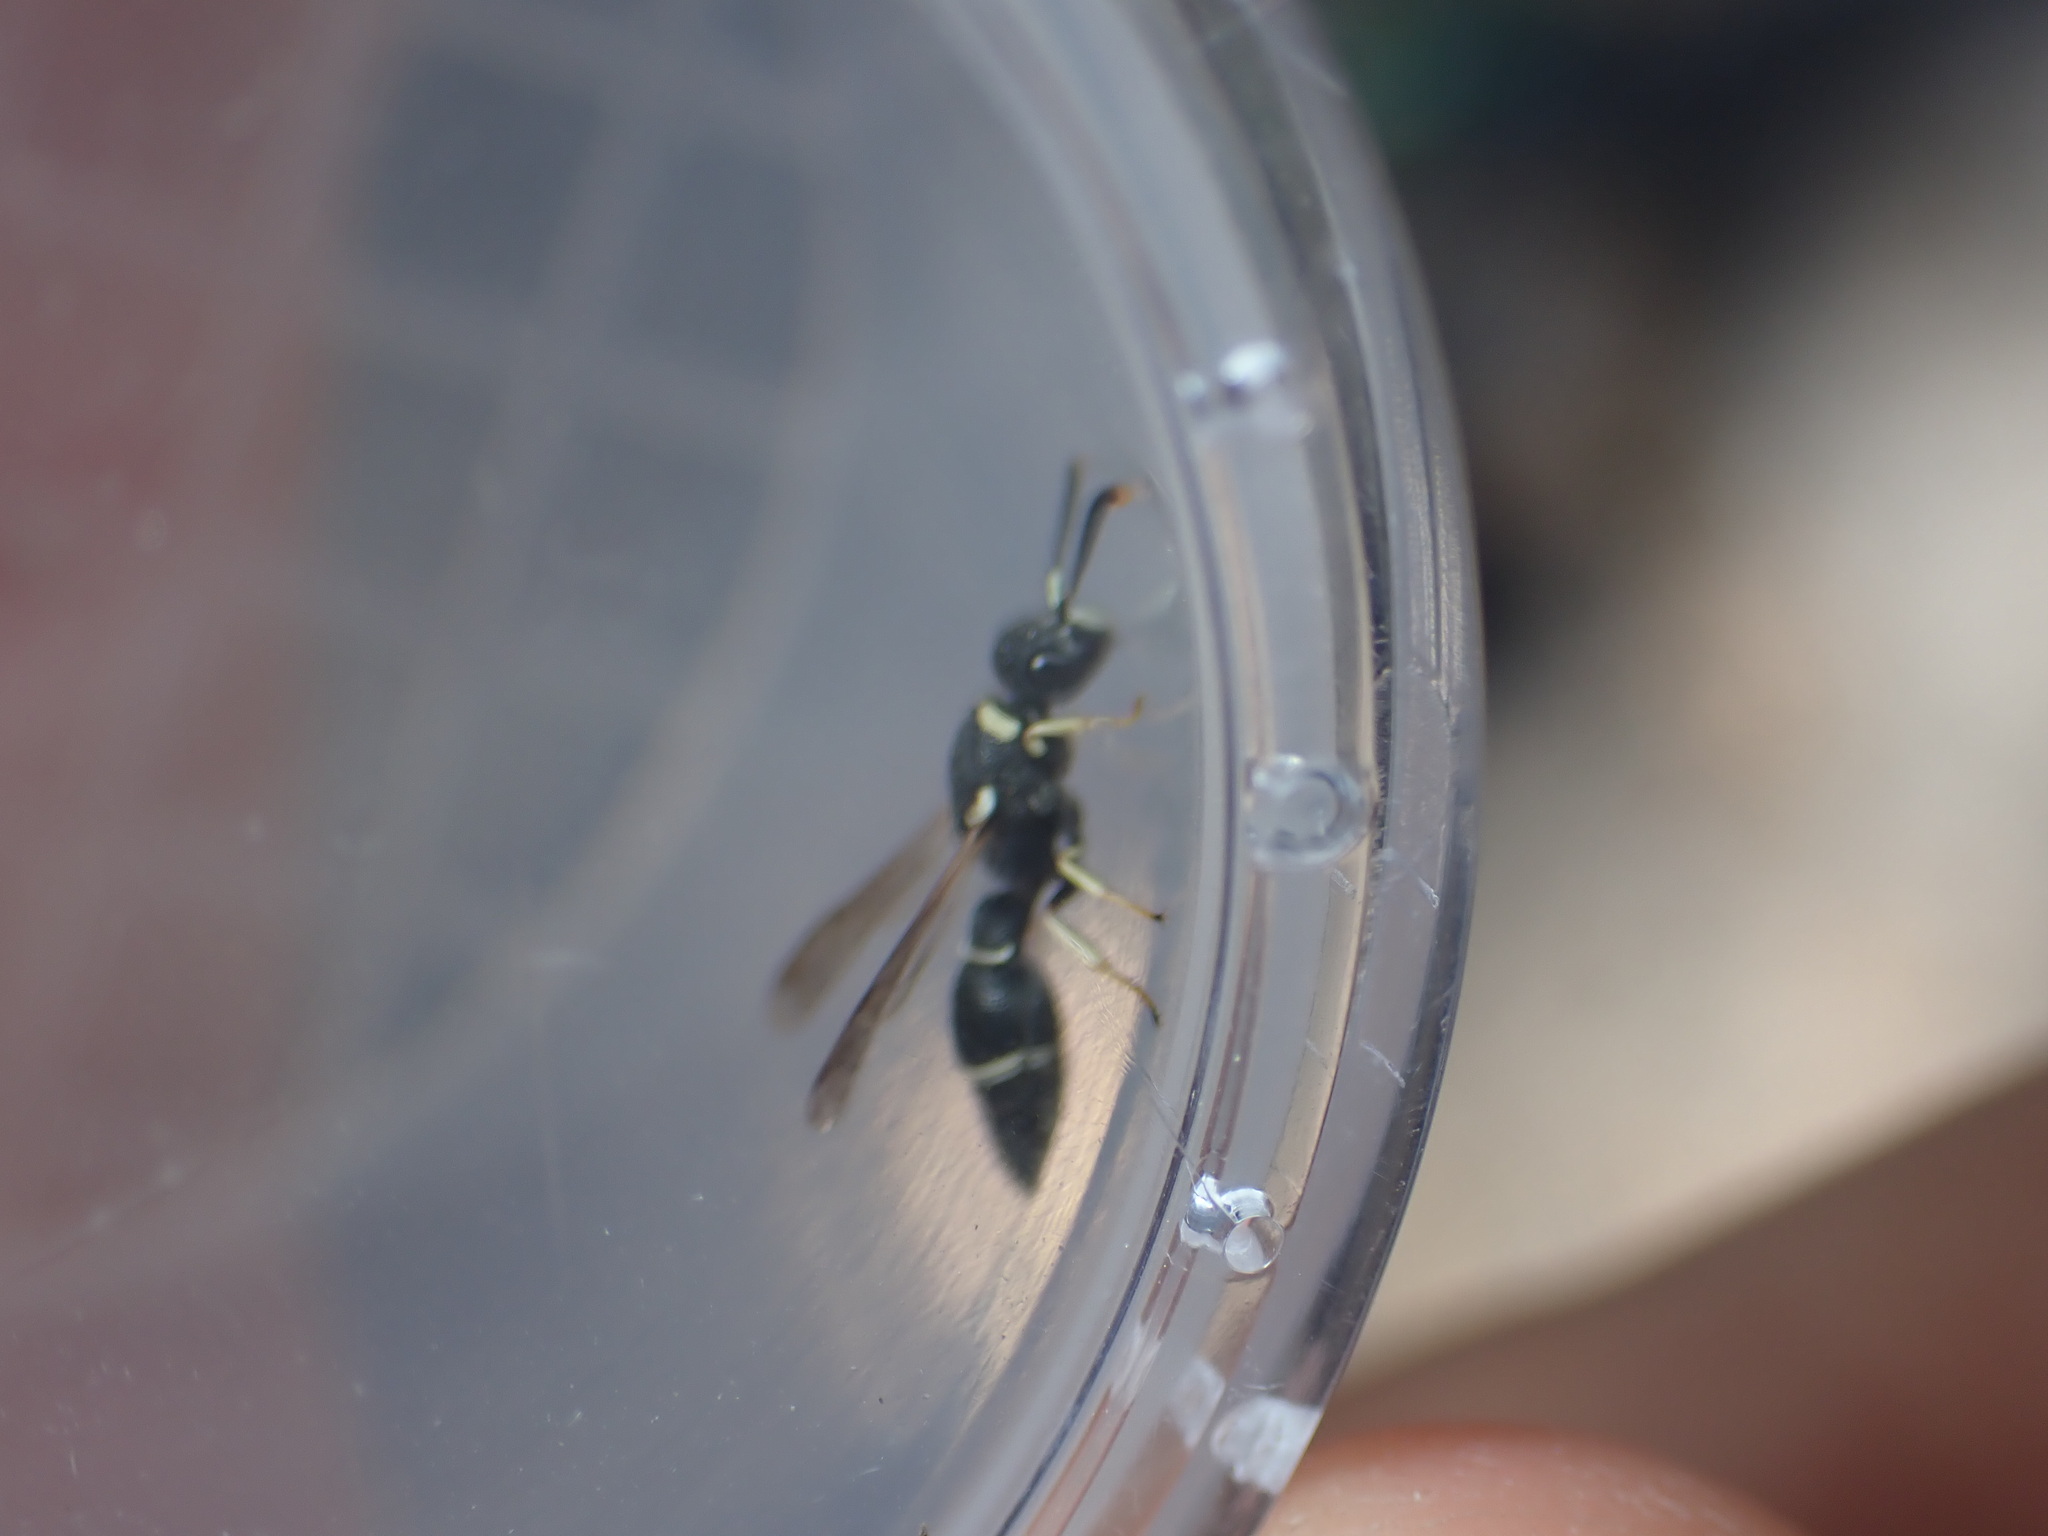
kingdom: Animalia
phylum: Arthropoda
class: Insecta
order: Hymenoptera
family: Eumenidae
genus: Leptochilus
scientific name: Leptochilus regulus
